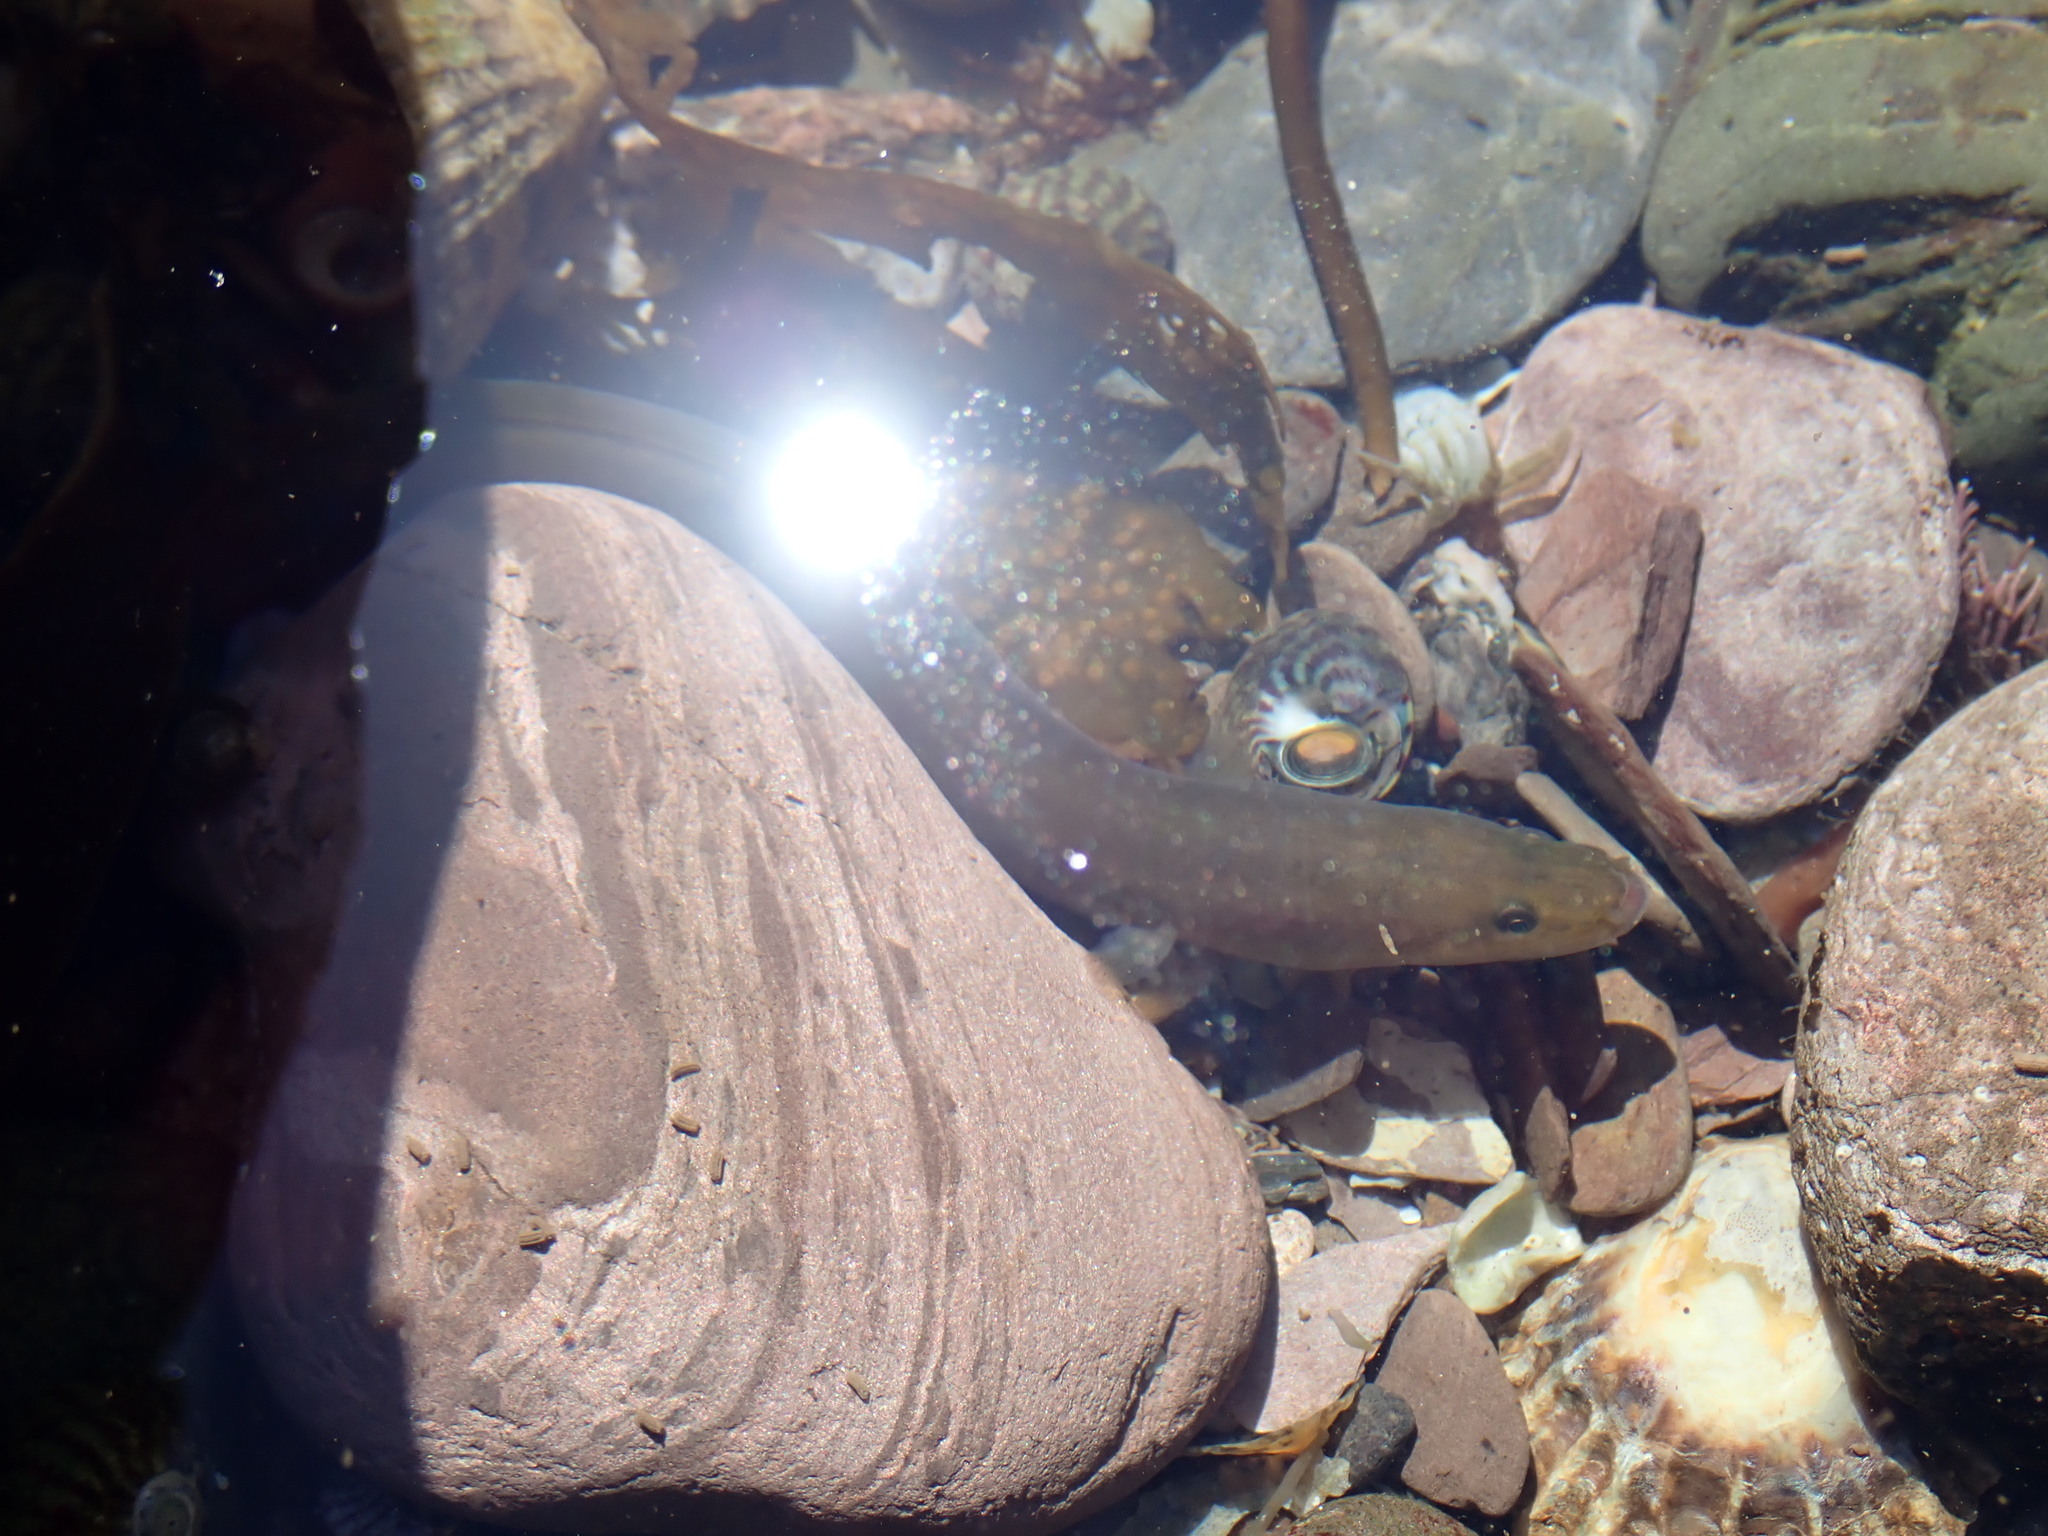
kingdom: Animalia
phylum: Chordata
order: Anguilliformes
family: Anguillidae
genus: Anguilla
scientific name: Anguilla anguilla
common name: European eel
